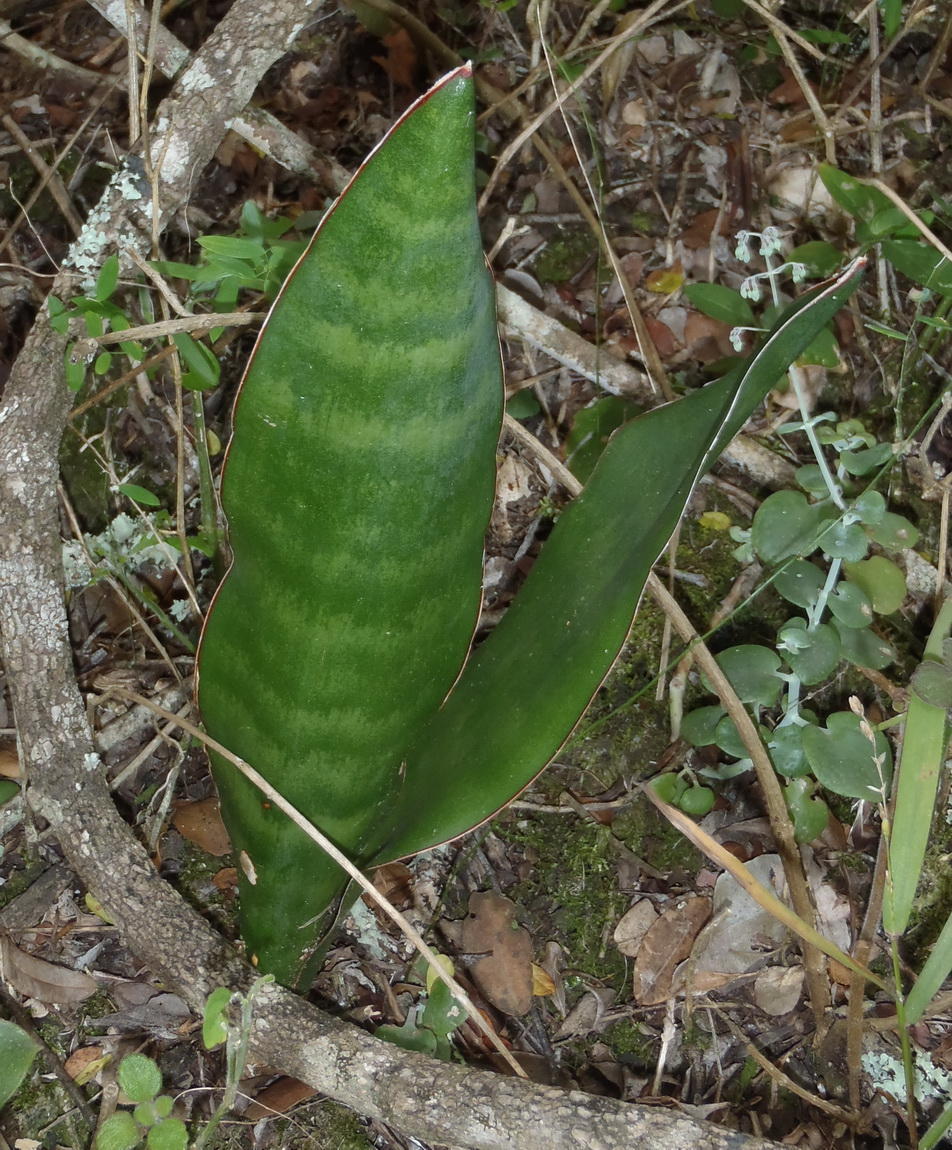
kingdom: Plantae
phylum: Tracheophyta
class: Liliopsida
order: Asparagales
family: Asparagaceae
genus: Dracaena
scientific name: Dracaena hyacinthoides
